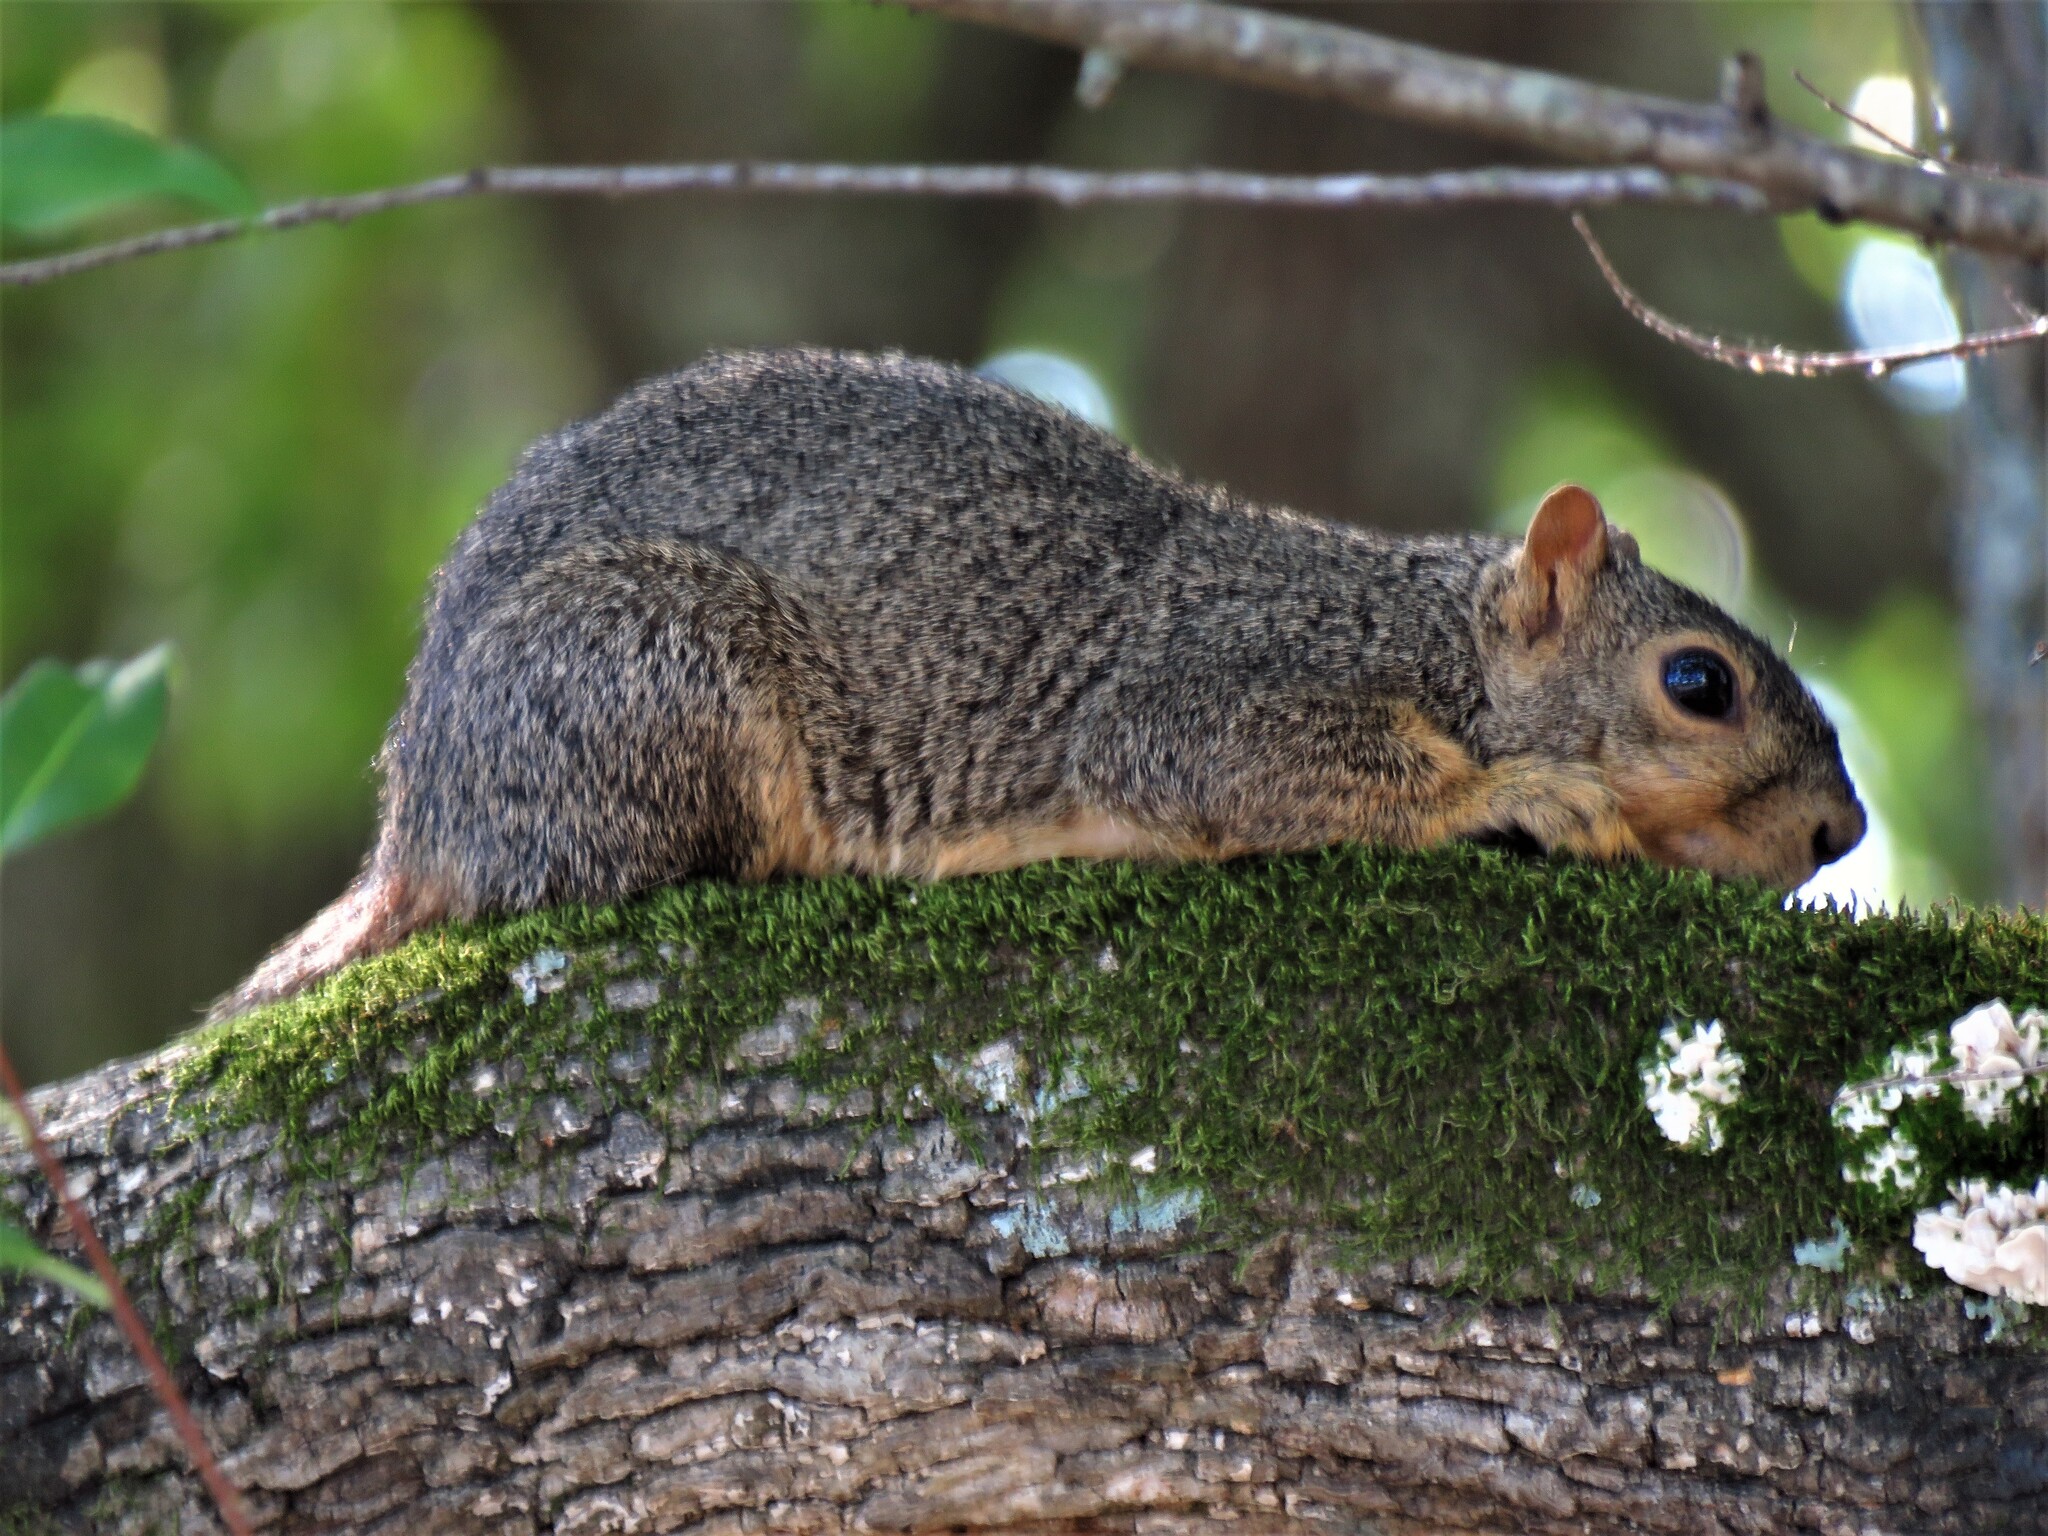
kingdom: Animalia
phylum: Chordata
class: Mammalia
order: Rodentia
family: Sciuridae
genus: Sciurus
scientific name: Sciurus niger
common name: Fox squirrel
